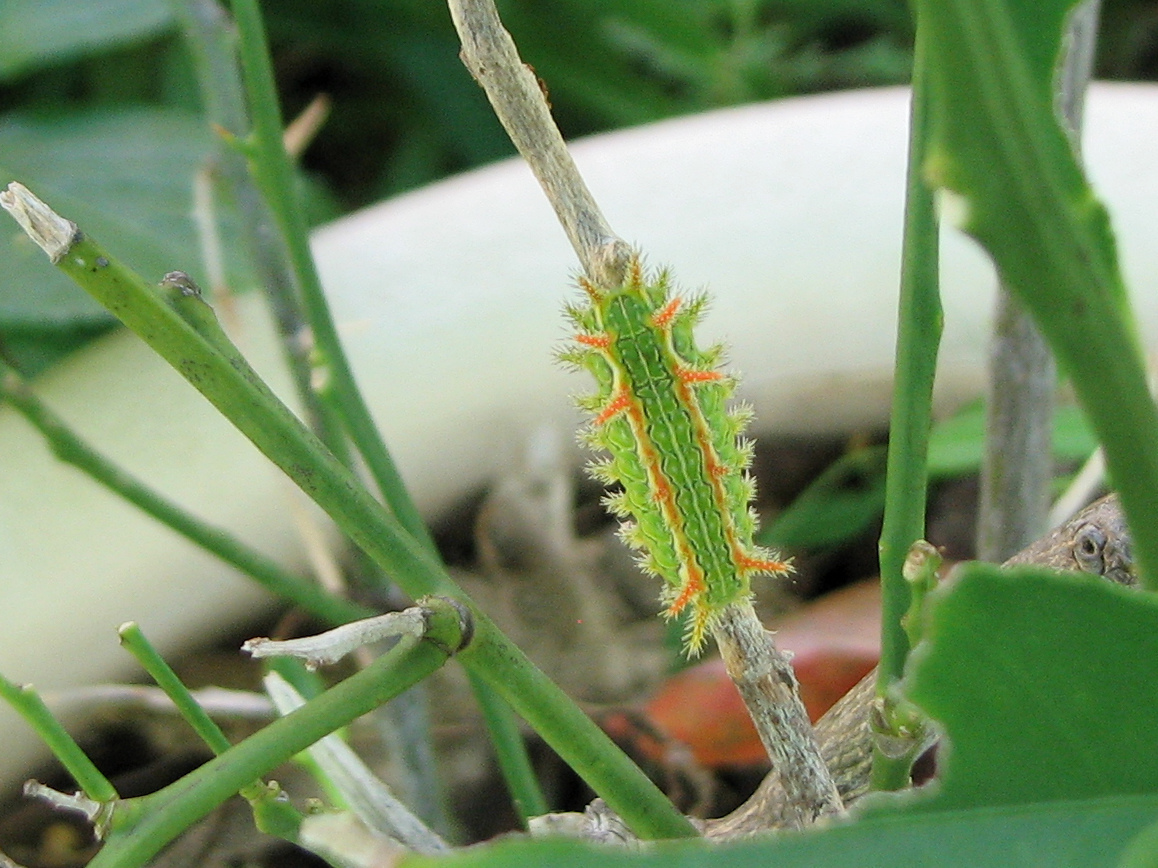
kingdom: Animalia
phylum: Arthropoda
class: Insecta
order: Lepidoptera
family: Limacodidae
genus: Euclea
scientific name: Euclea incisa
